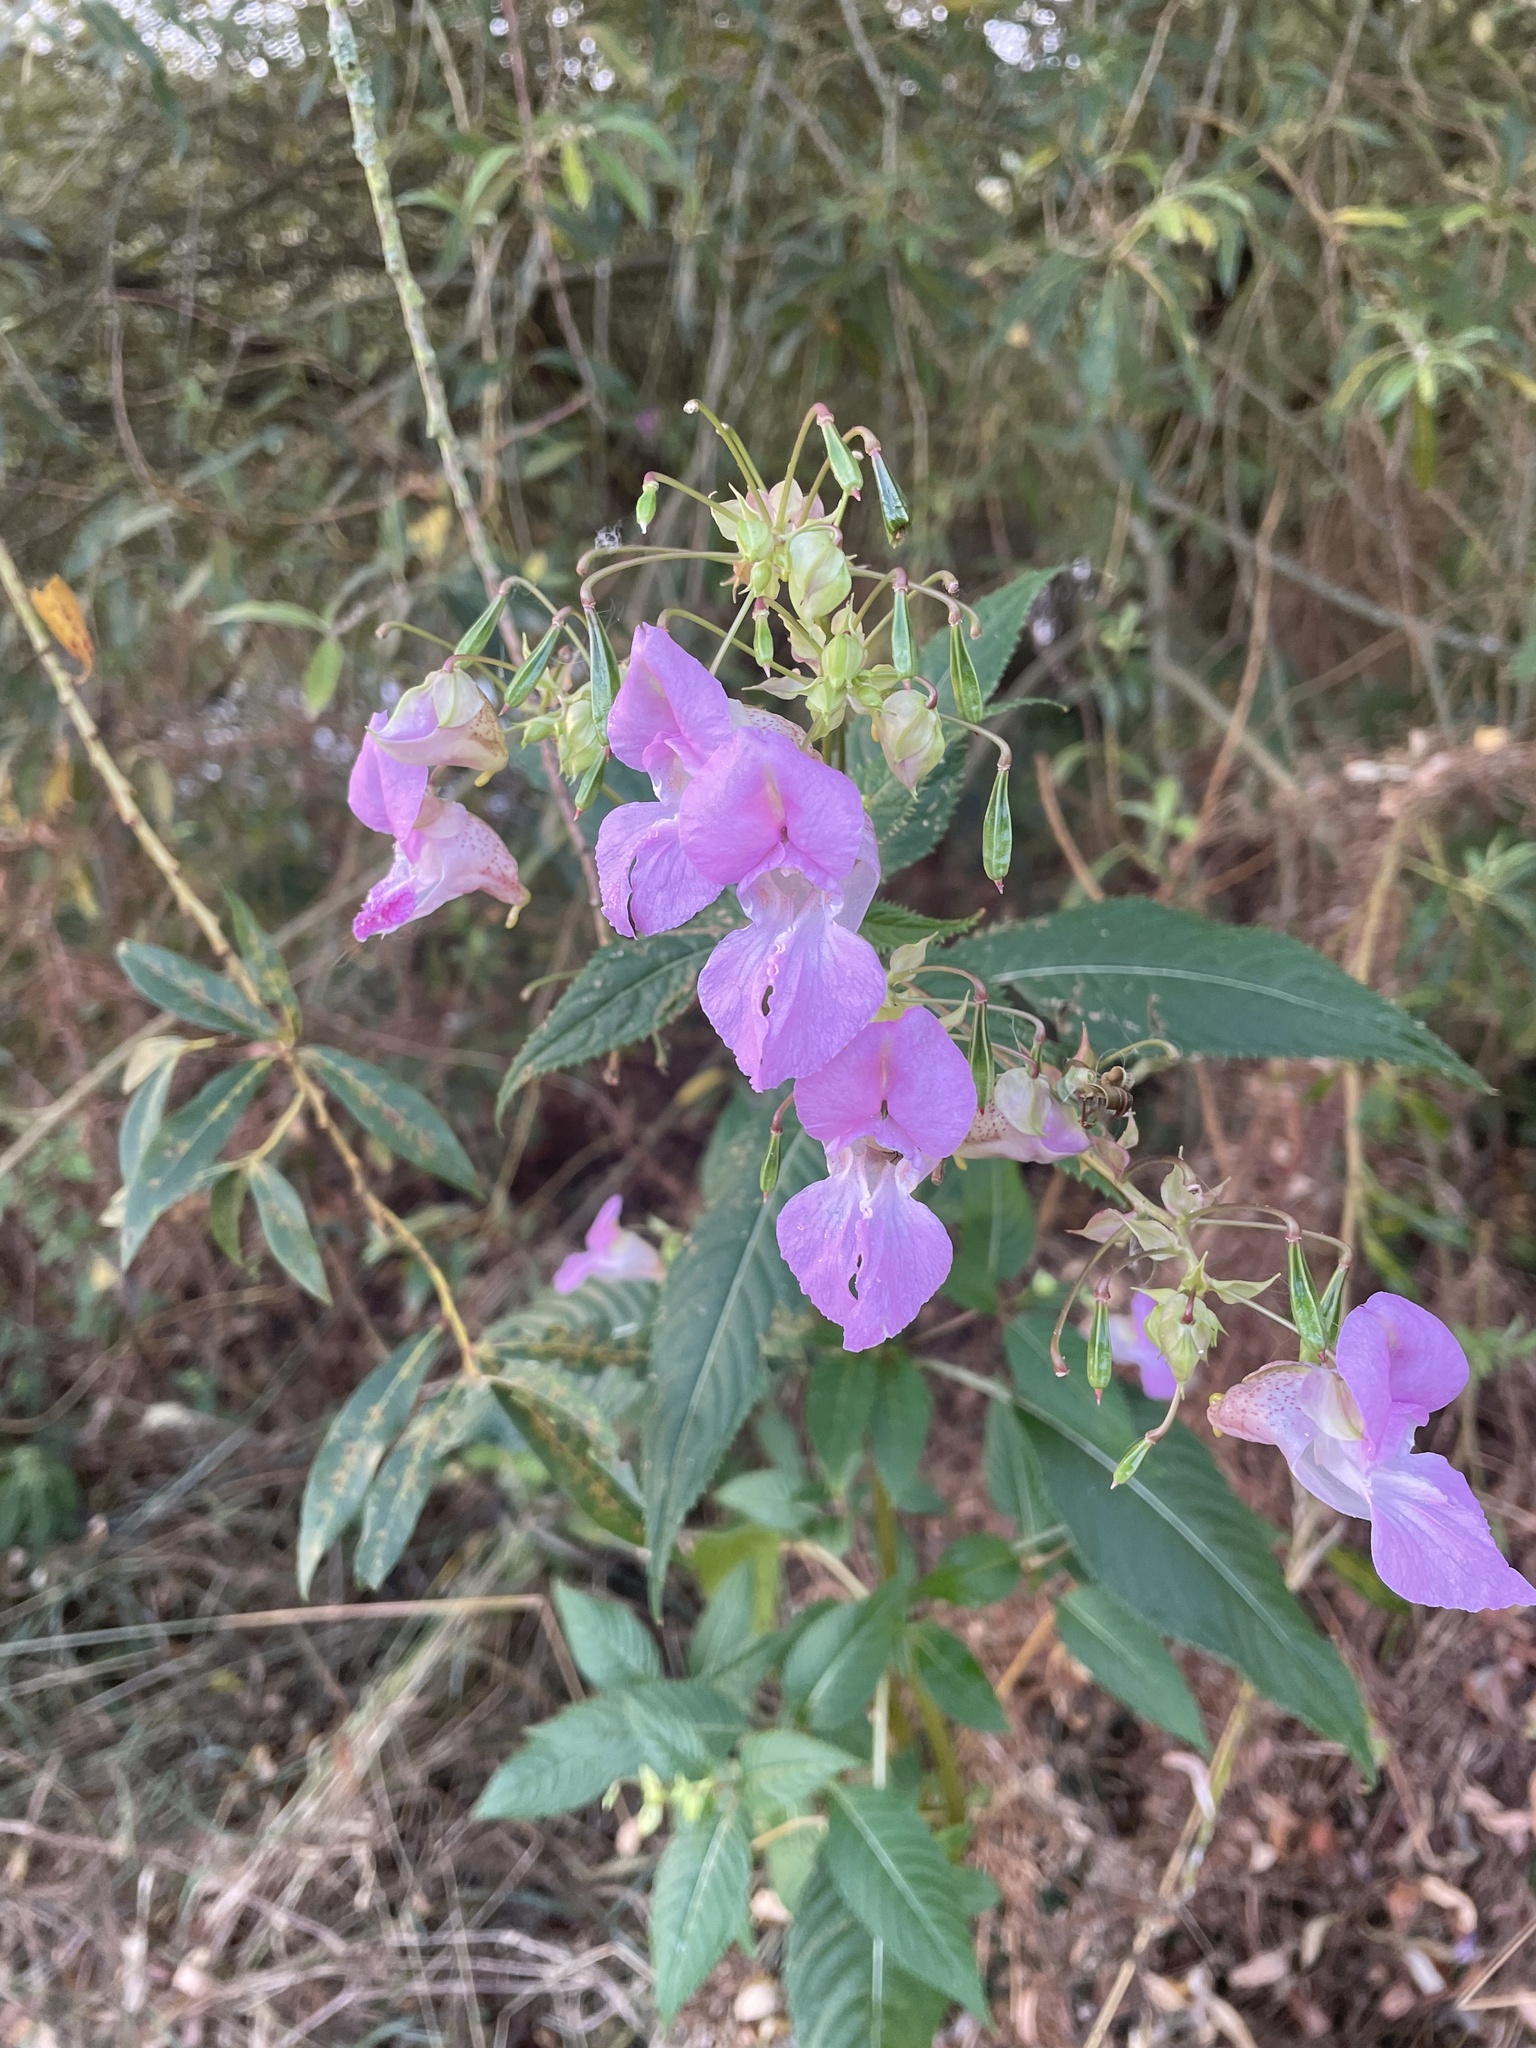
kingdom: Plantae
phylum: Tracheophyta
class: Magnoliopsida
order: Ericales
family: Balsaminaceae
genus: Impatiens
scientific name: Impatiens glandulifera
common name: Himalayan balsam
